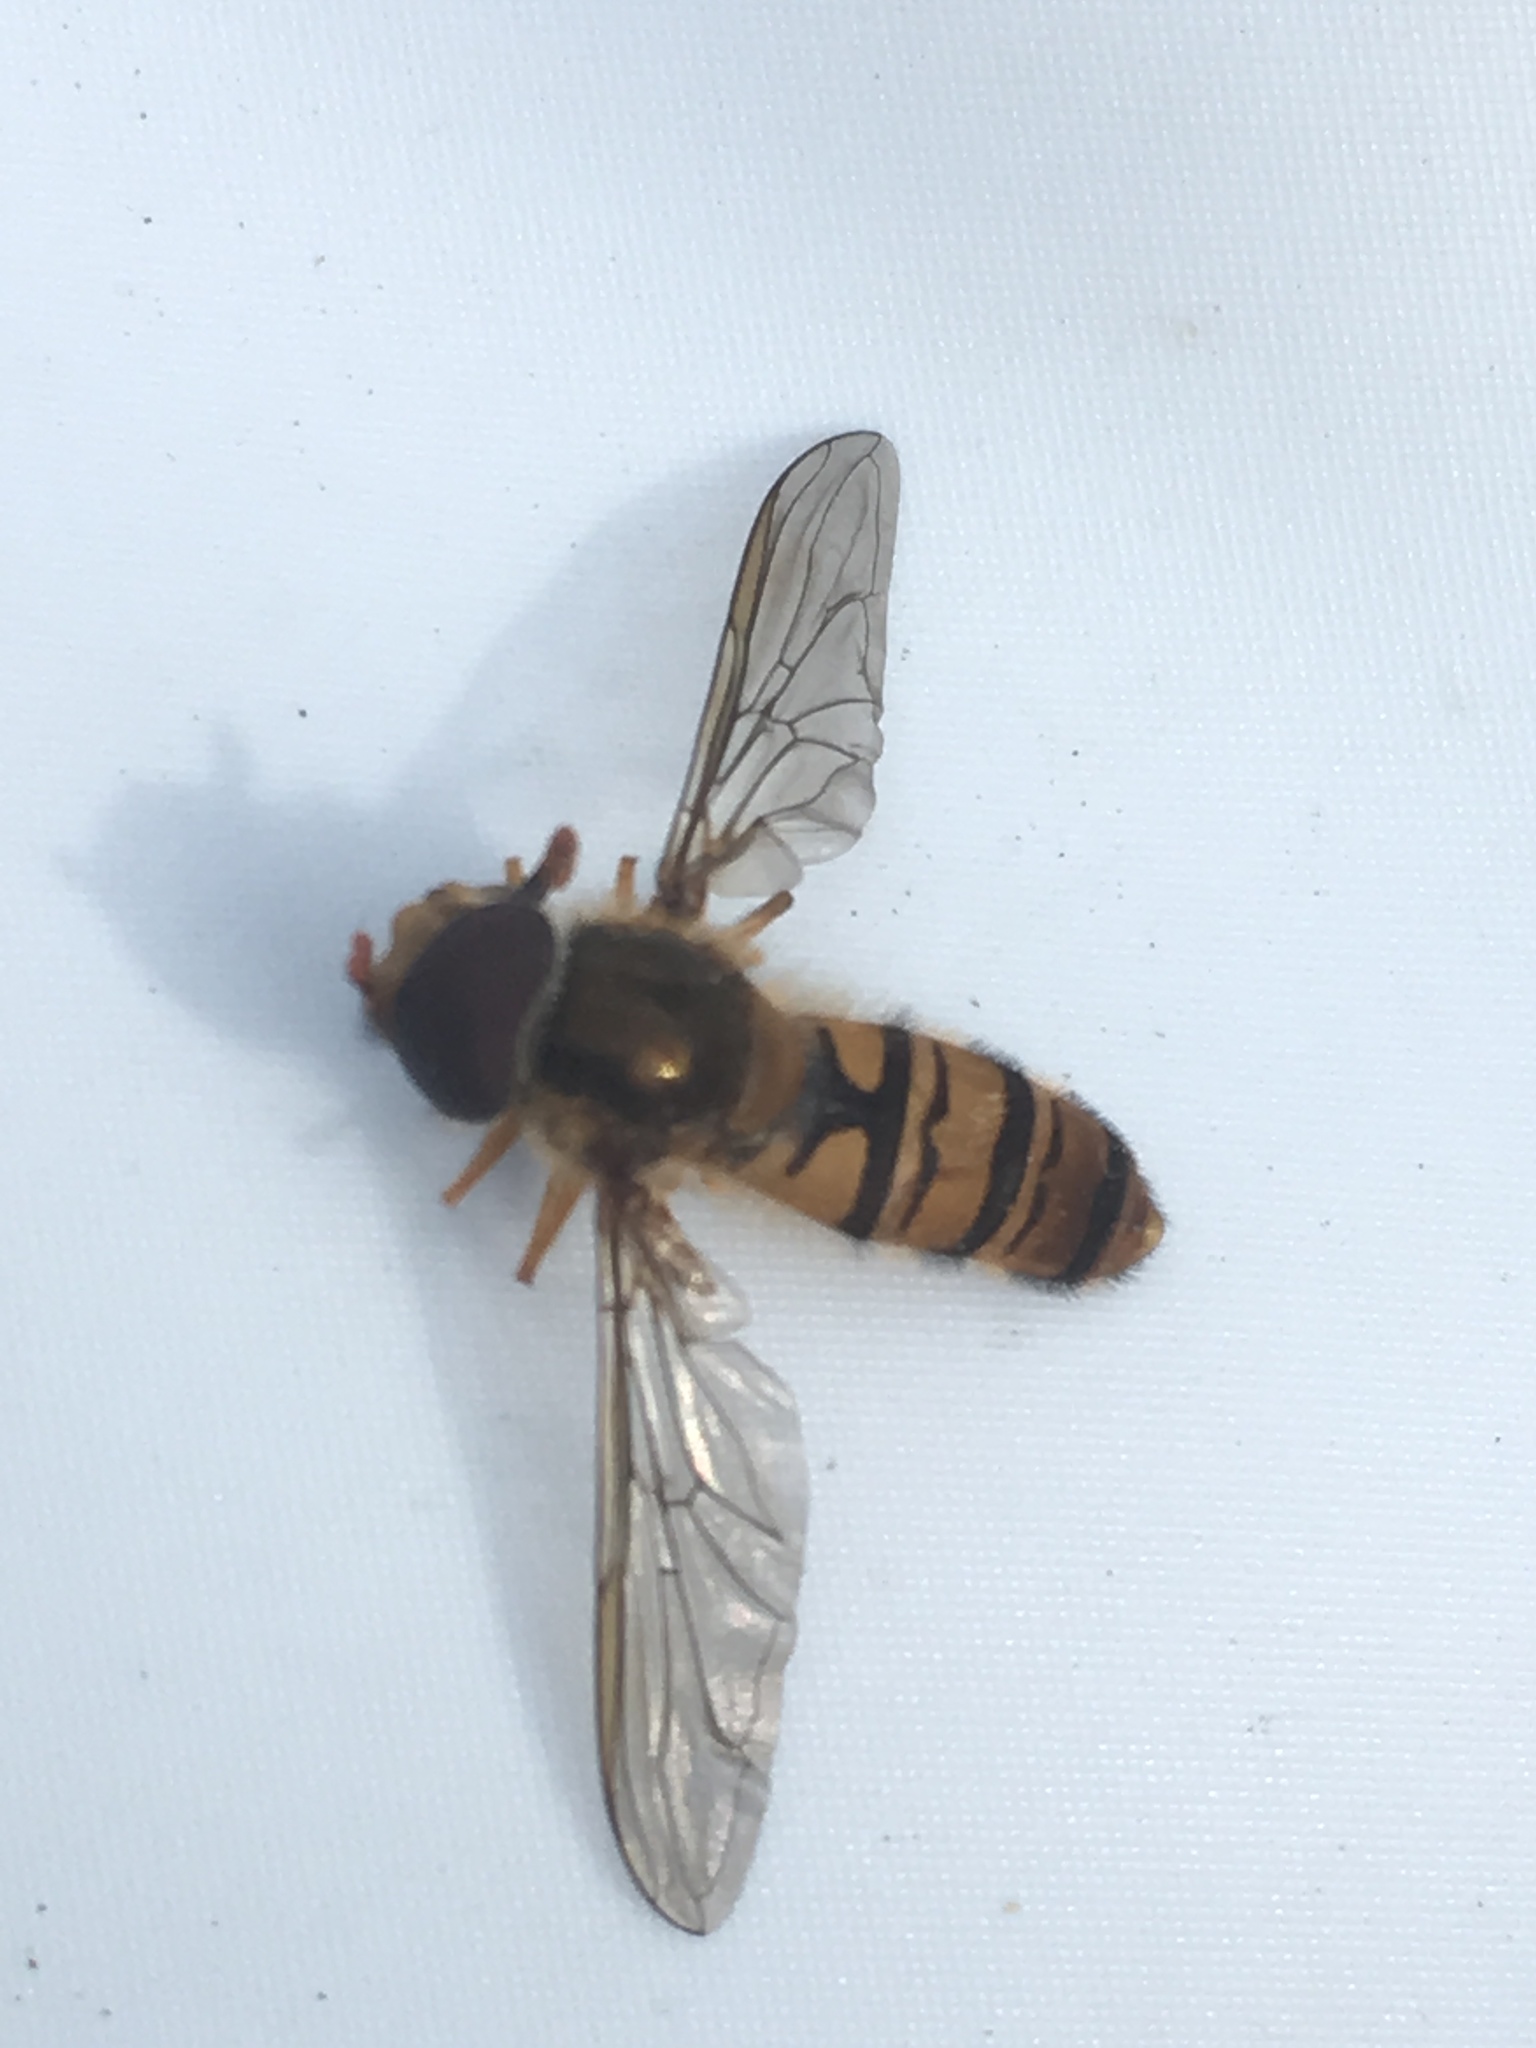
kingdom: Animalia
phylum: Arthropoda
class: Insecta
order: Diptera
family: Syrphidae
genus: Episyrphus
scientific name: Episyrphus balteatus
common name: Marmalade hoverfly
